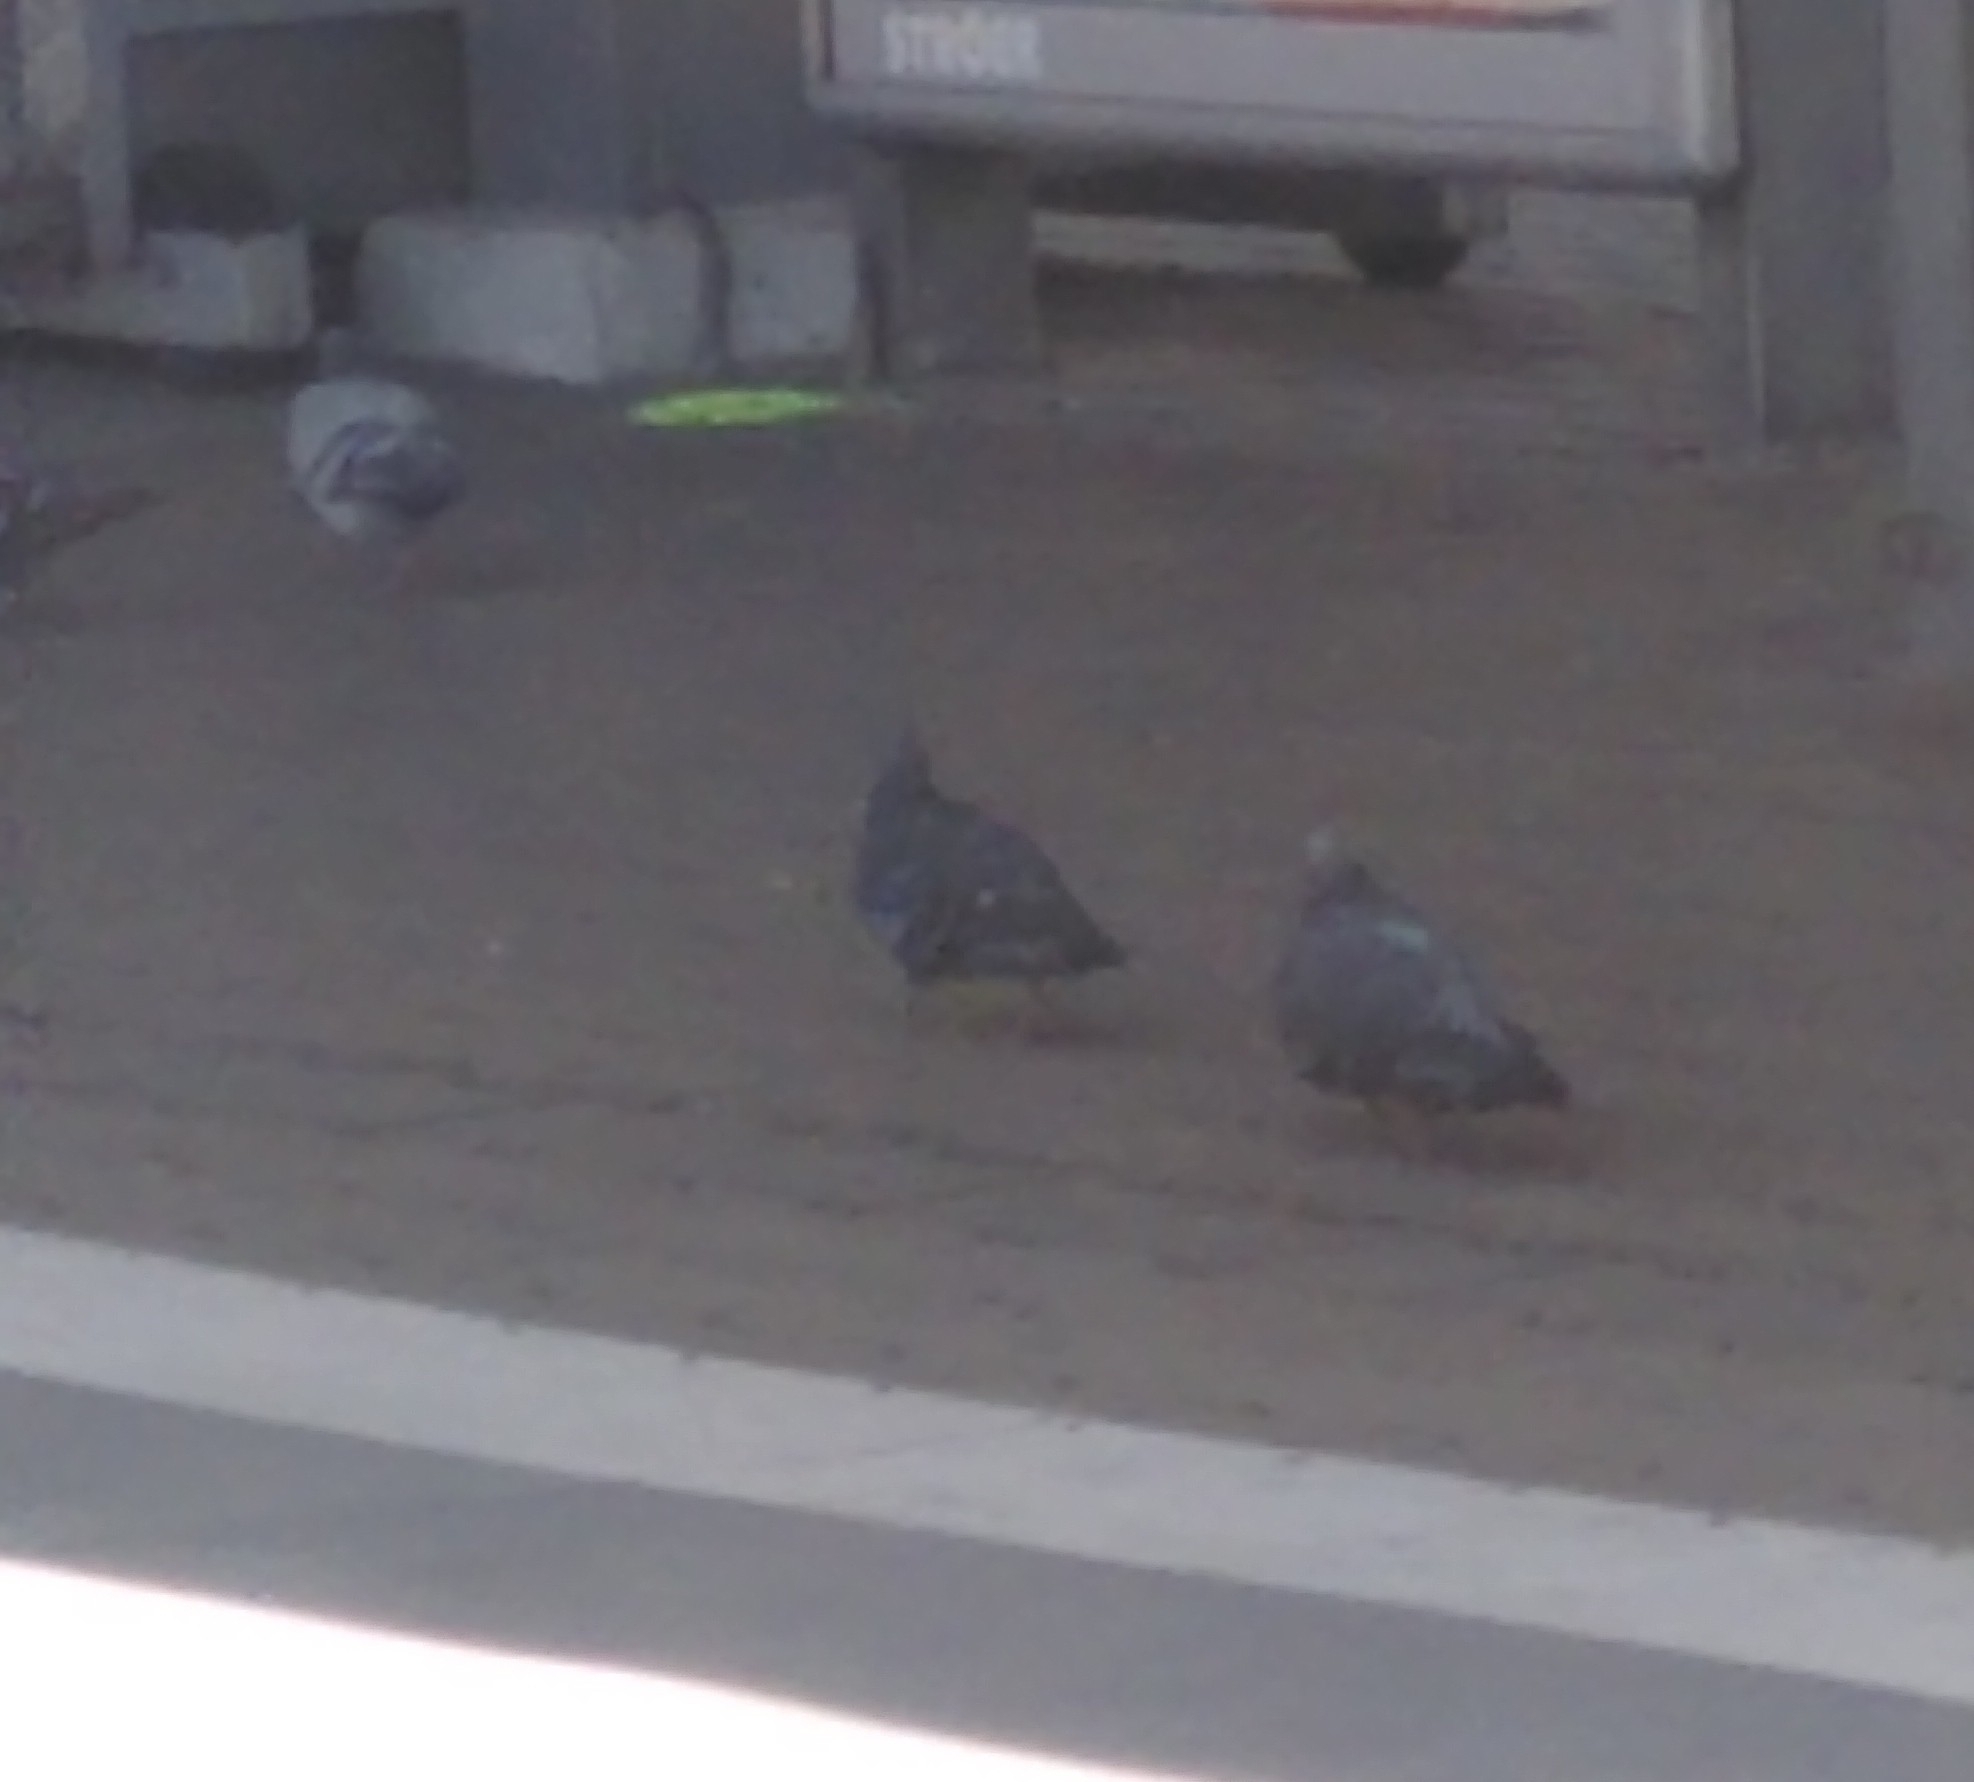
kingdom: Animalia
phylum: Chordata
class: Aves
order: Columbiformes
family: Columbidae
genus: Columba
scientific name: Columba livia
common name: Rock pigeon
